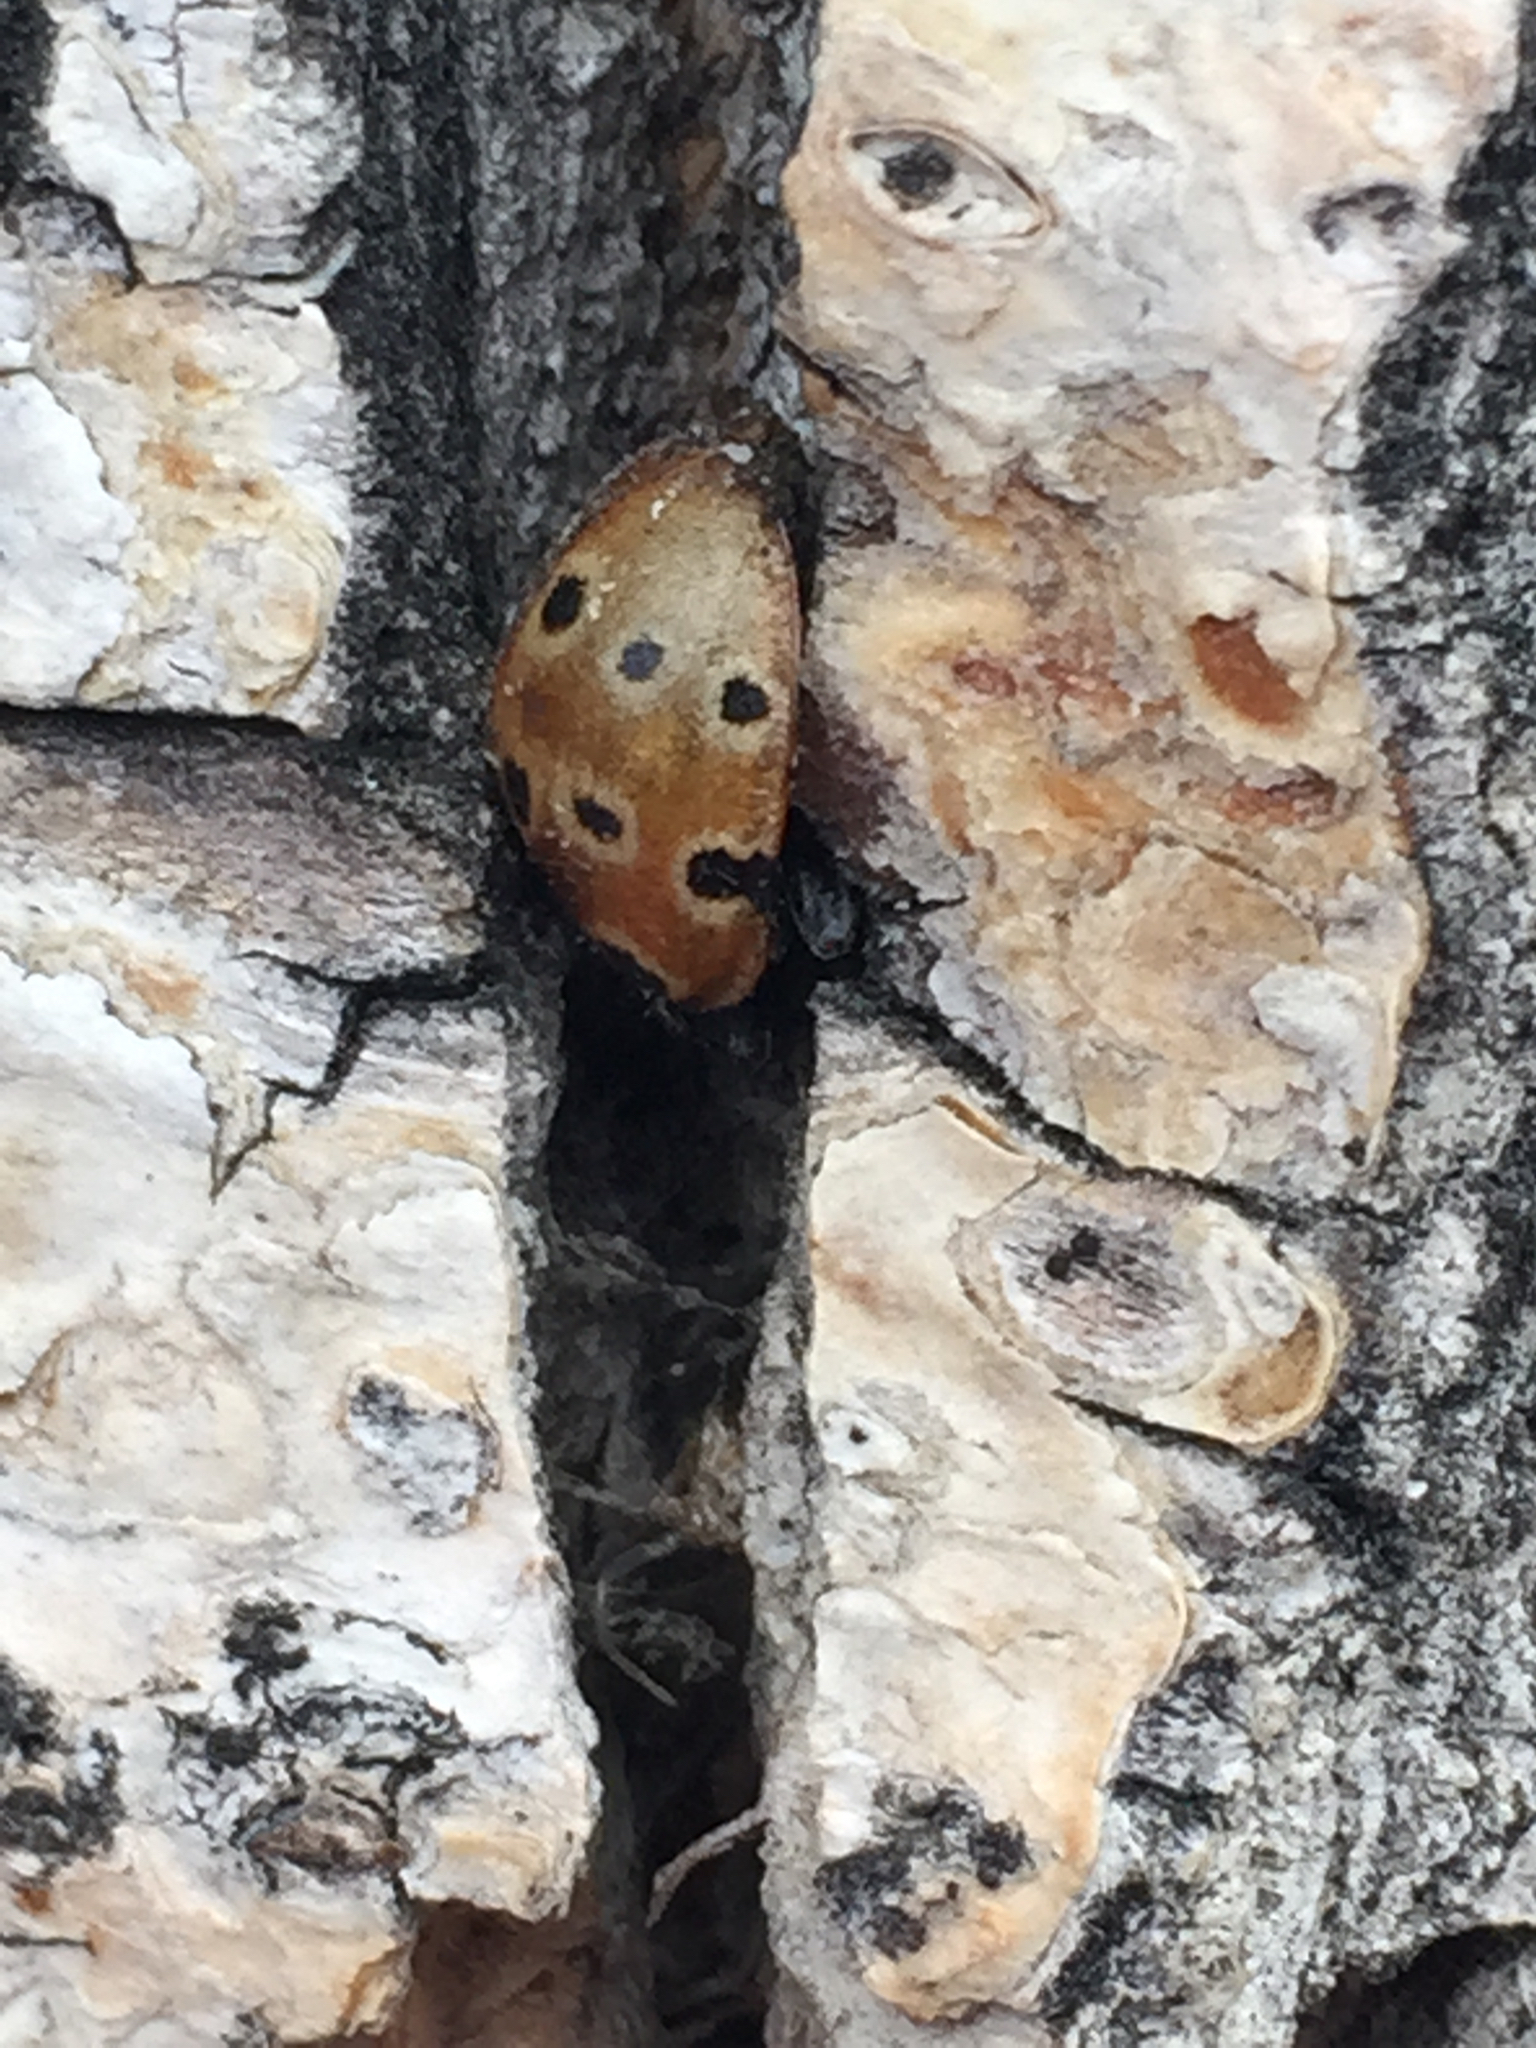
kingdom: Animalia
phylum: Arthropoda
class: Insecta
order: Coleoptera
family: Coccinellidae
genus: Anatis
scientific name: Anatis mali
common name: Eye-spotted lady beetle
